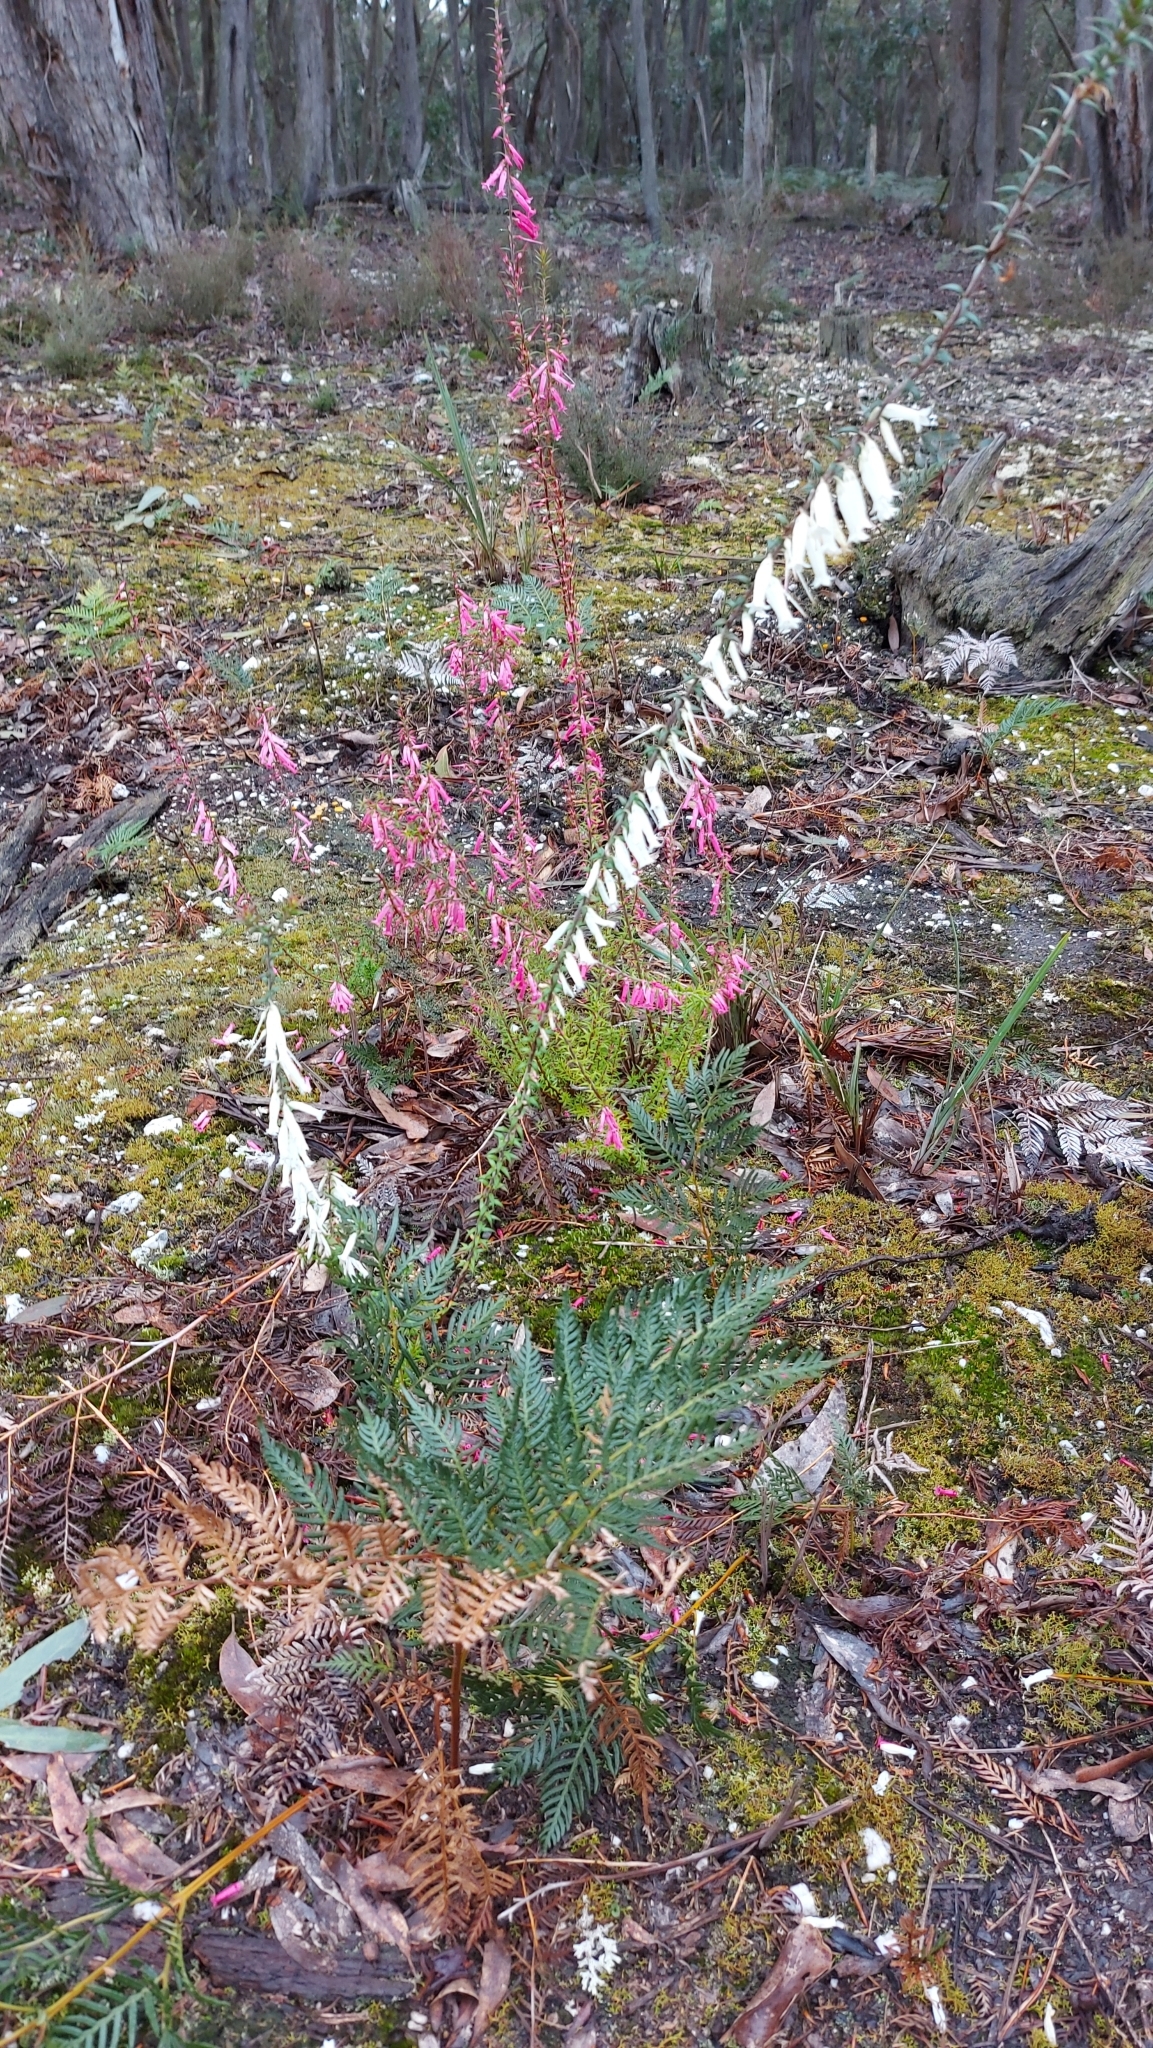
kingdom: Plantae
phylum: Tracheophyta
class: Magnoliopsida
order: Ericales
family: Ericaceae
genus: Epacris
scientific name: Epacris impressa
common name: Common-heath
